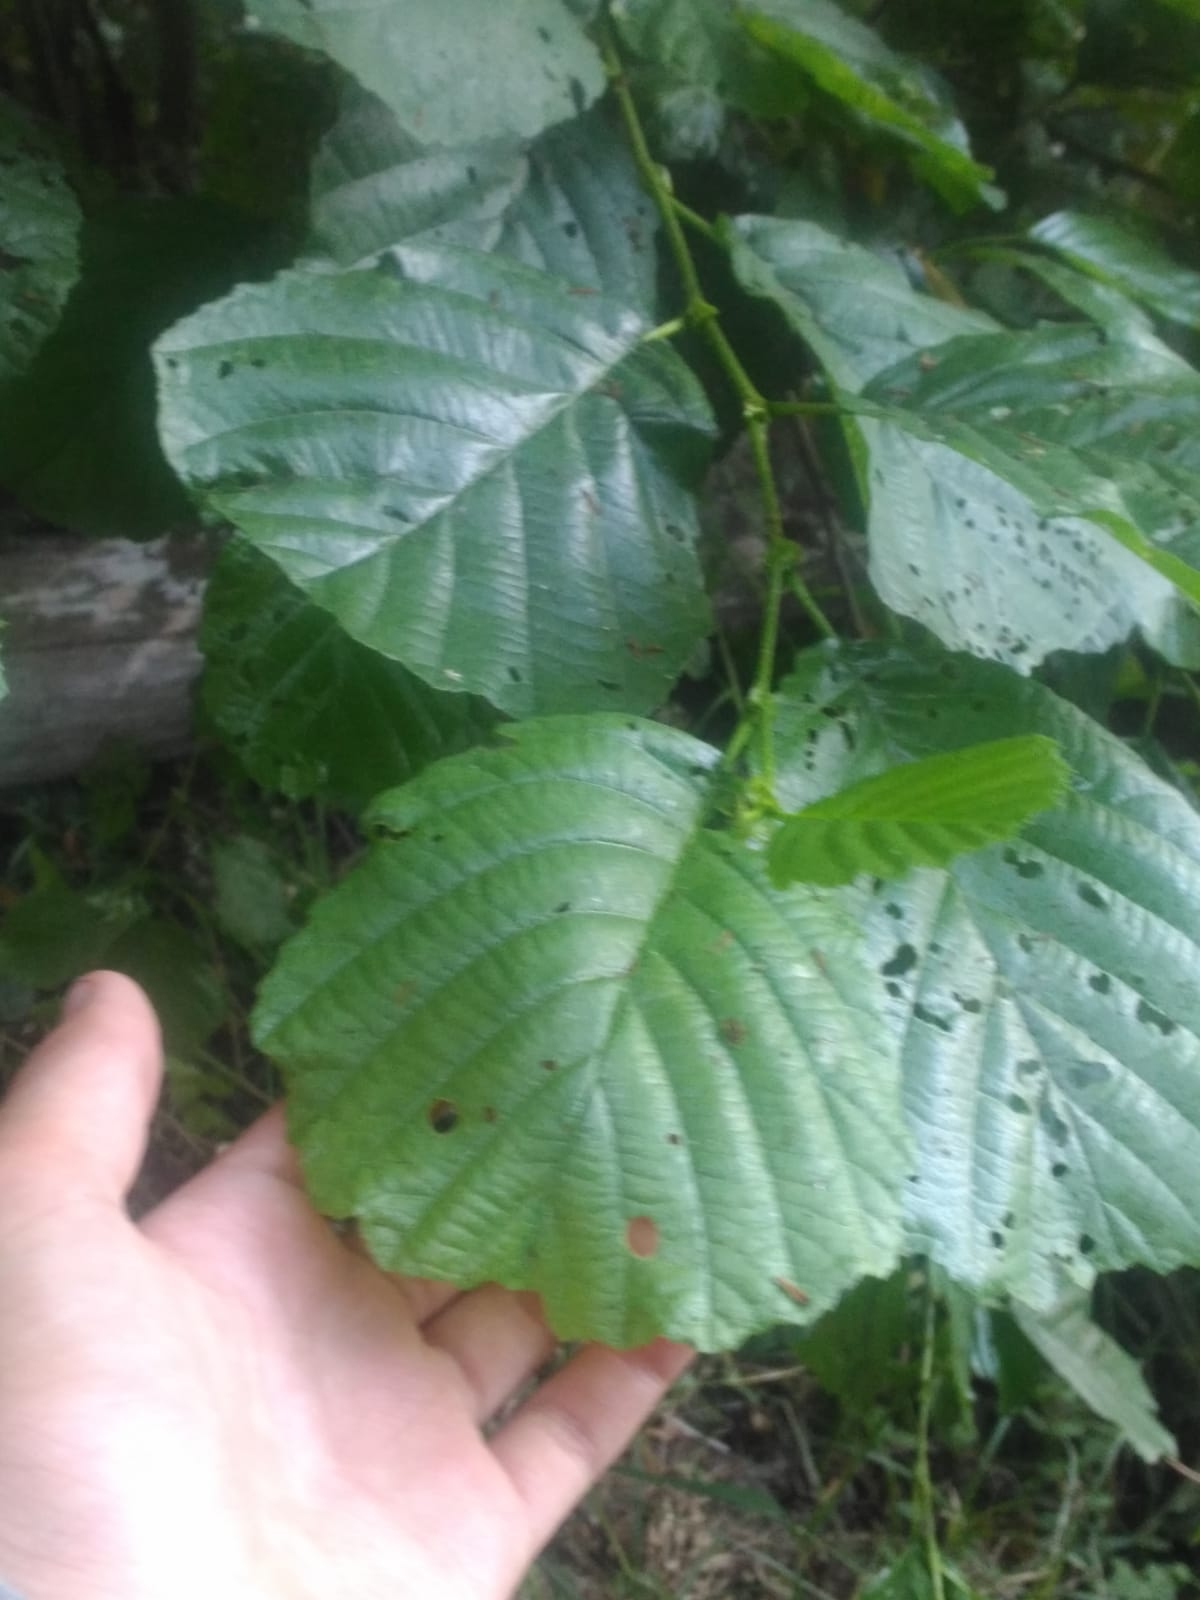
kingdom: Plantae
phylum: Tracheophyta
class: Magnoliopsida
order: Fagales
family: Betulaceae
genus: Alnus
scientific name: Alnus glutinosa
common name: Black alder
